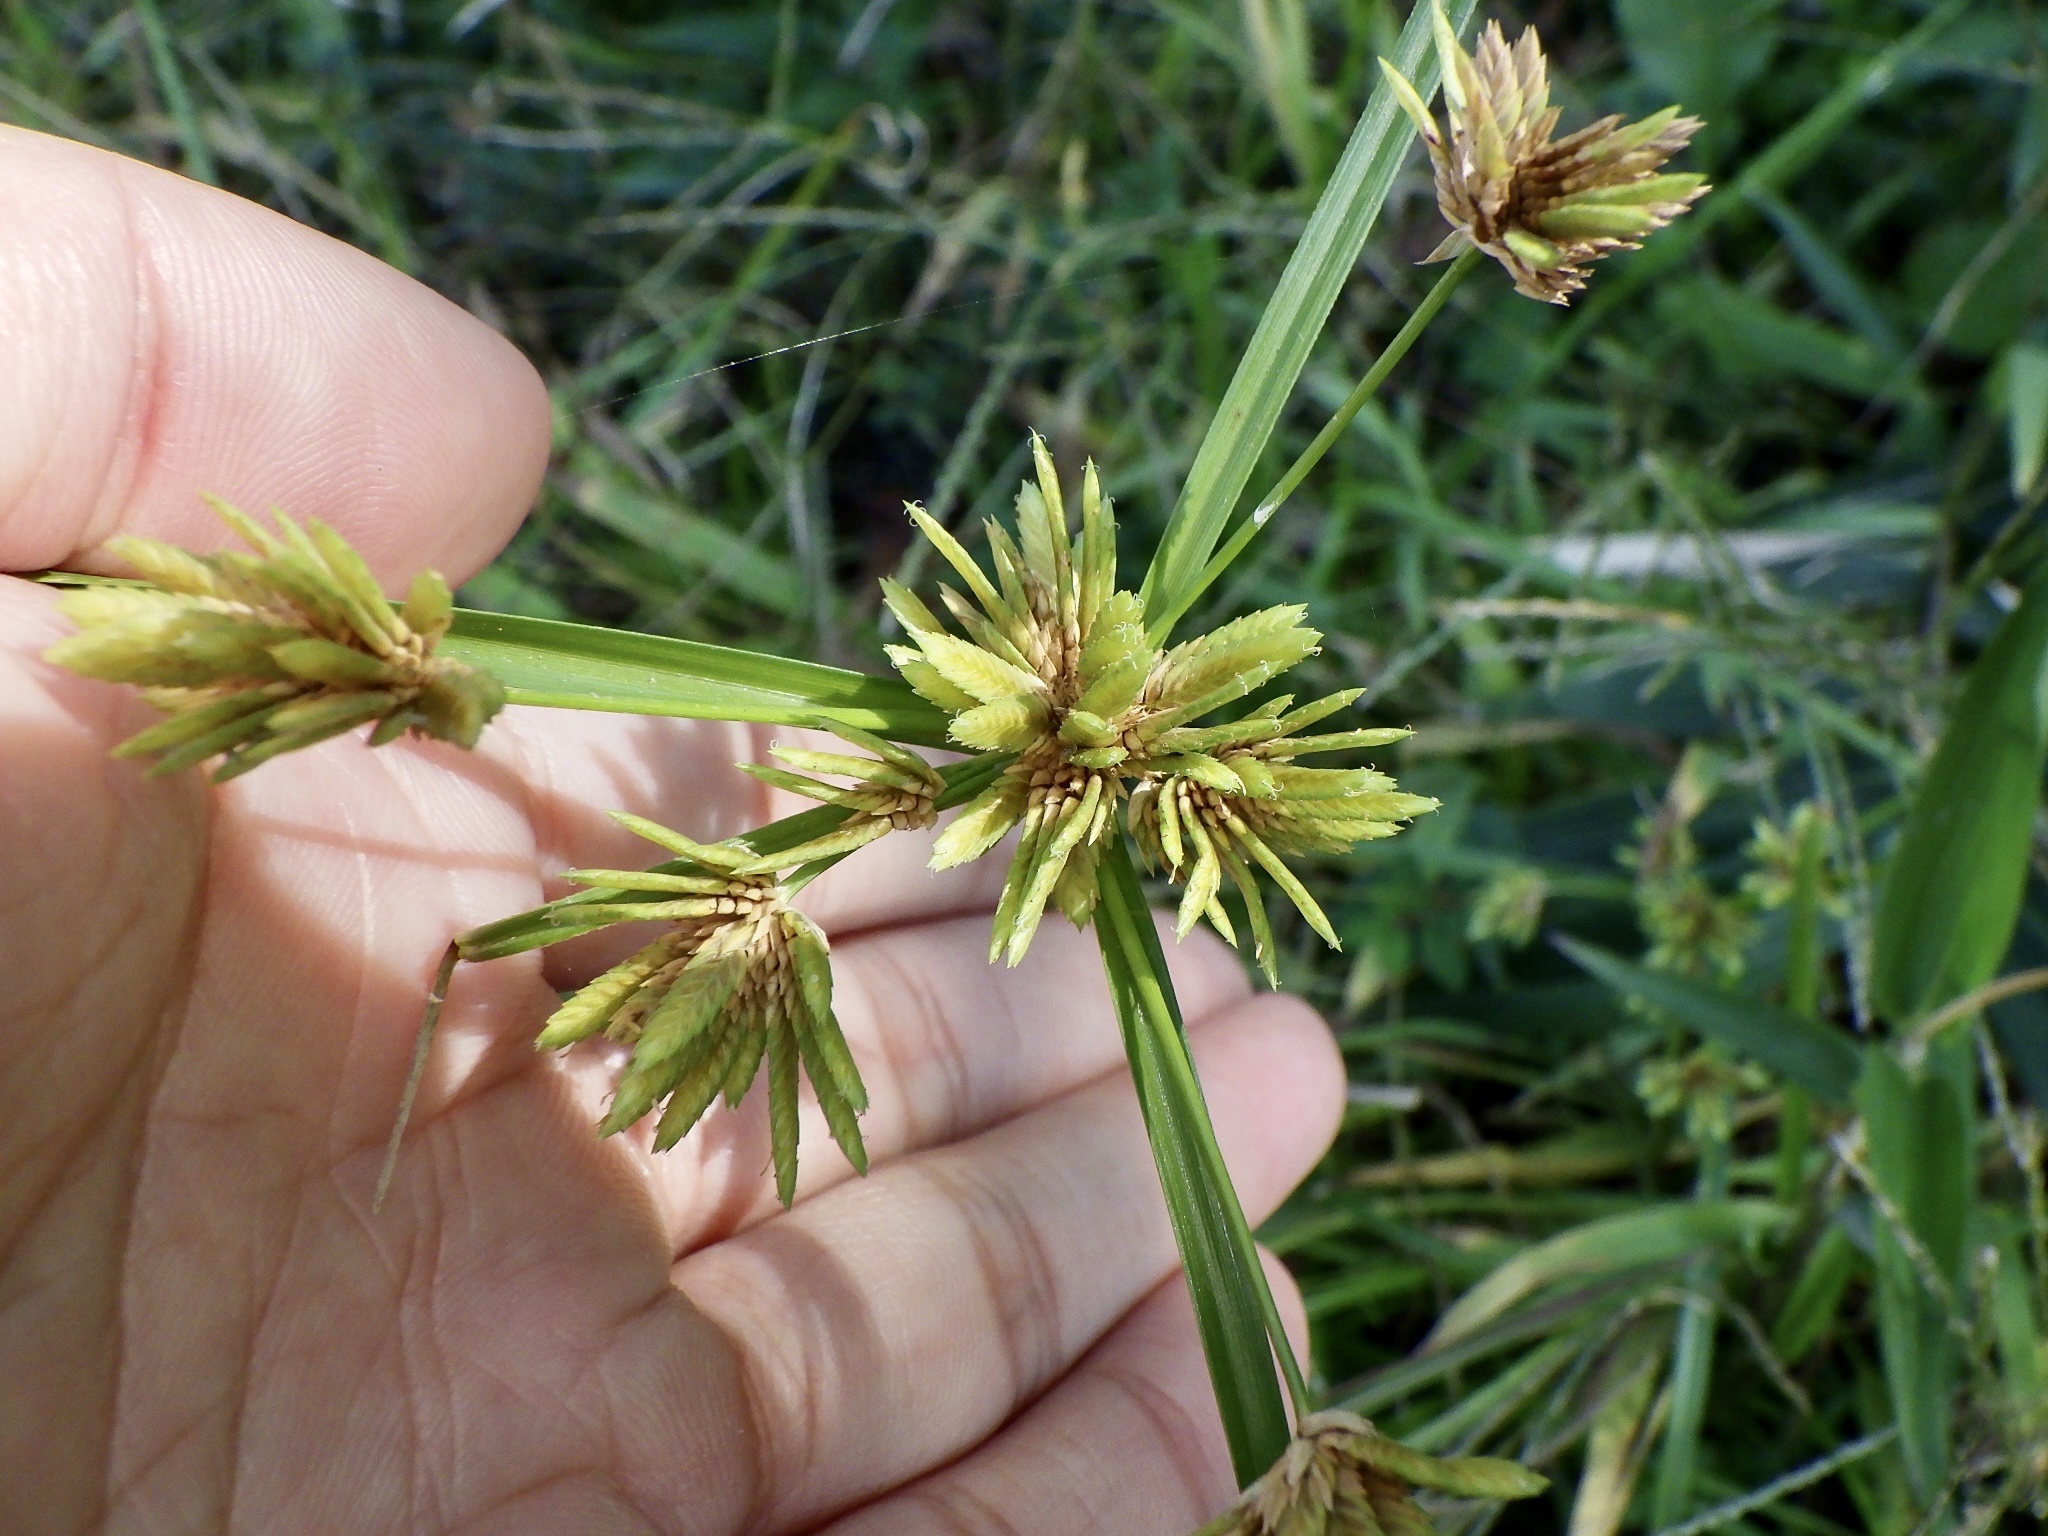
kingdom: Plantae
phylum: Tracheophyta
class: Liliopsida
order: Poales
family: Cyperaceae
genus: Cyperus
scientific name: Cyperus eragrostis
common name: Tall flatsedge
